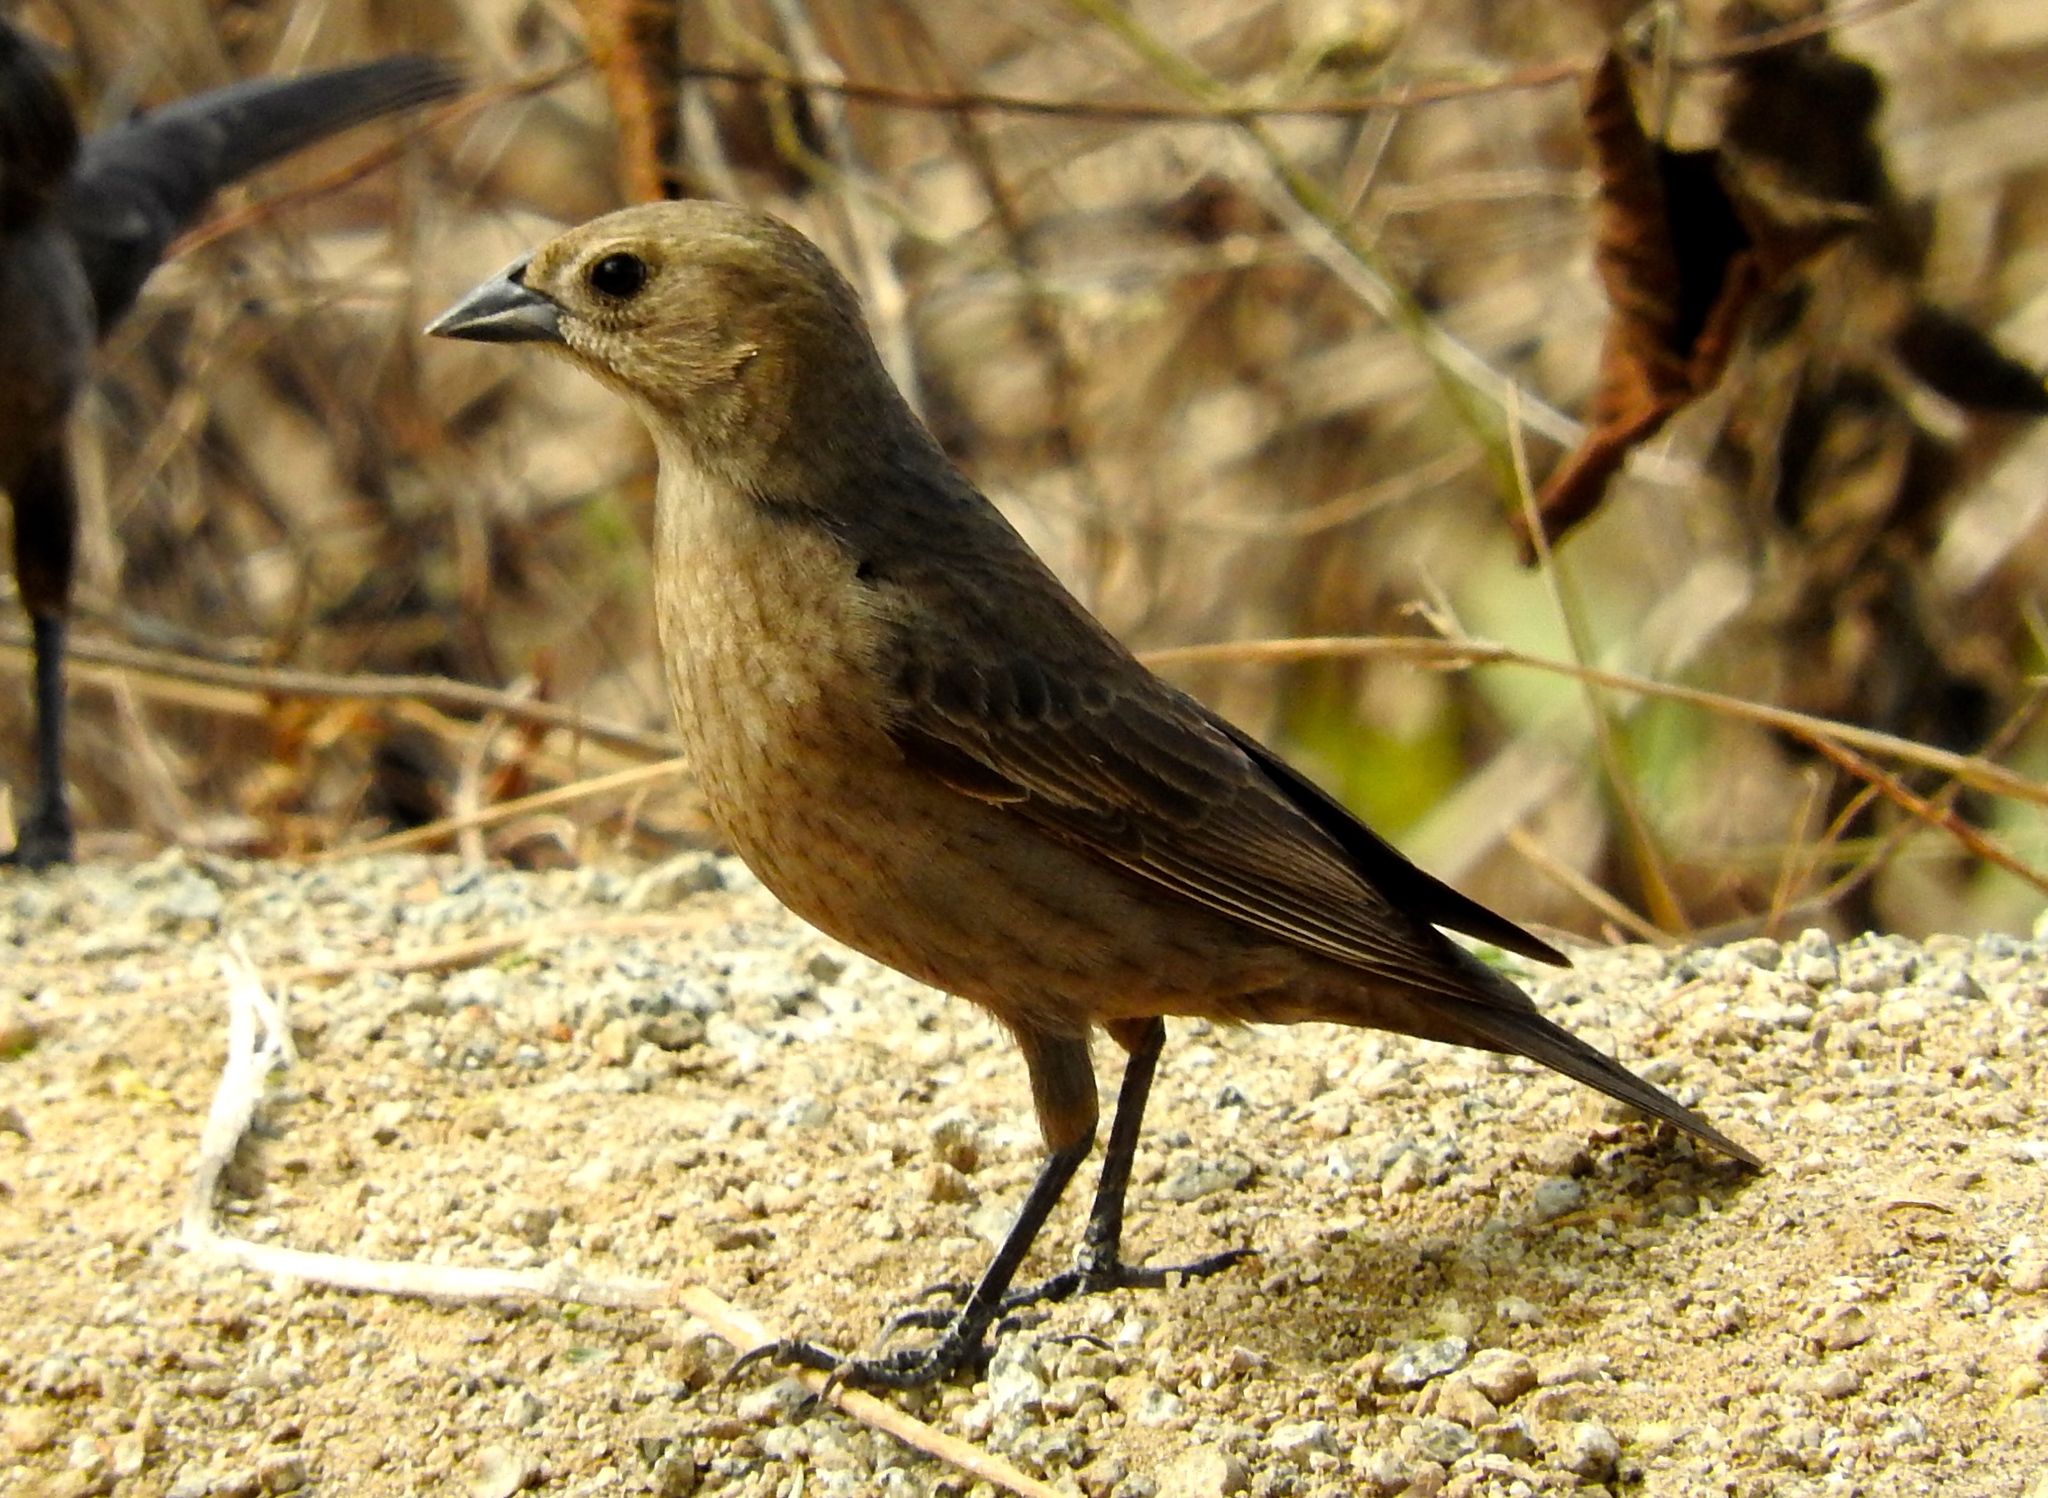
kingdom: Animalia
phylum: Chordata
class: Aves
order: Passeriformes
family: Icteridae
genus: Molothrus
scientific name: Molothrus ater
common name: Brown-headed cowbird
